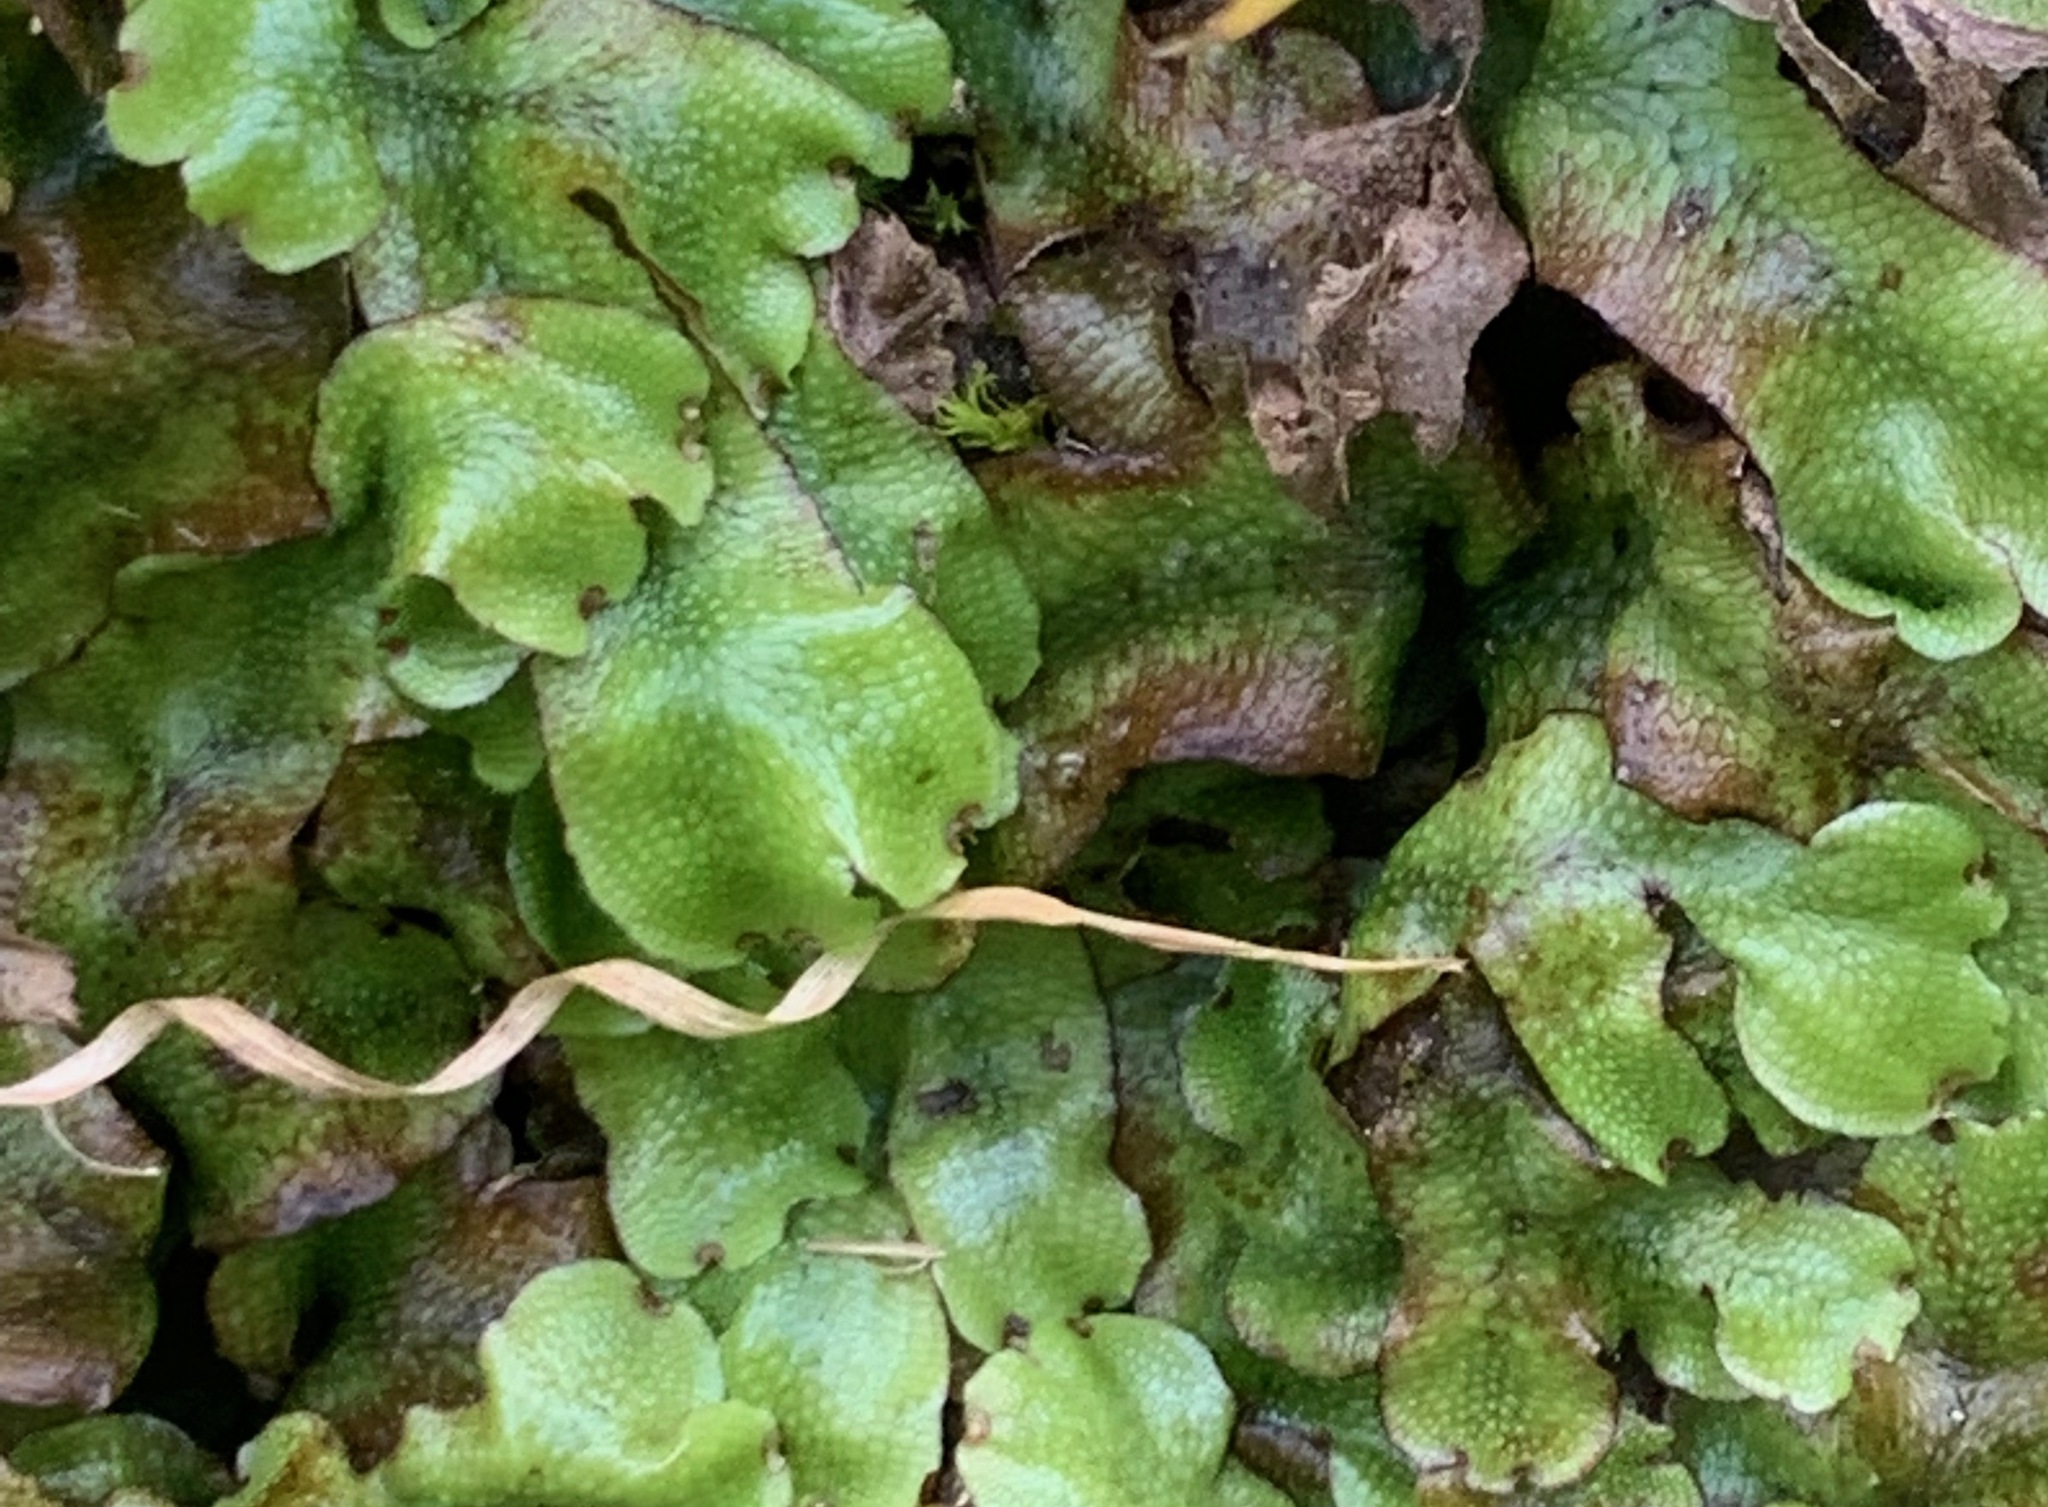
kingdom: Plantae
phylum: Marchantiophyta
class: Marchantiopsida
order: Marchantiales
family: Conocephalaceae
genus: Conocephalum
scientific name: Conocephalum conicum
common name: Great scented liverwort
